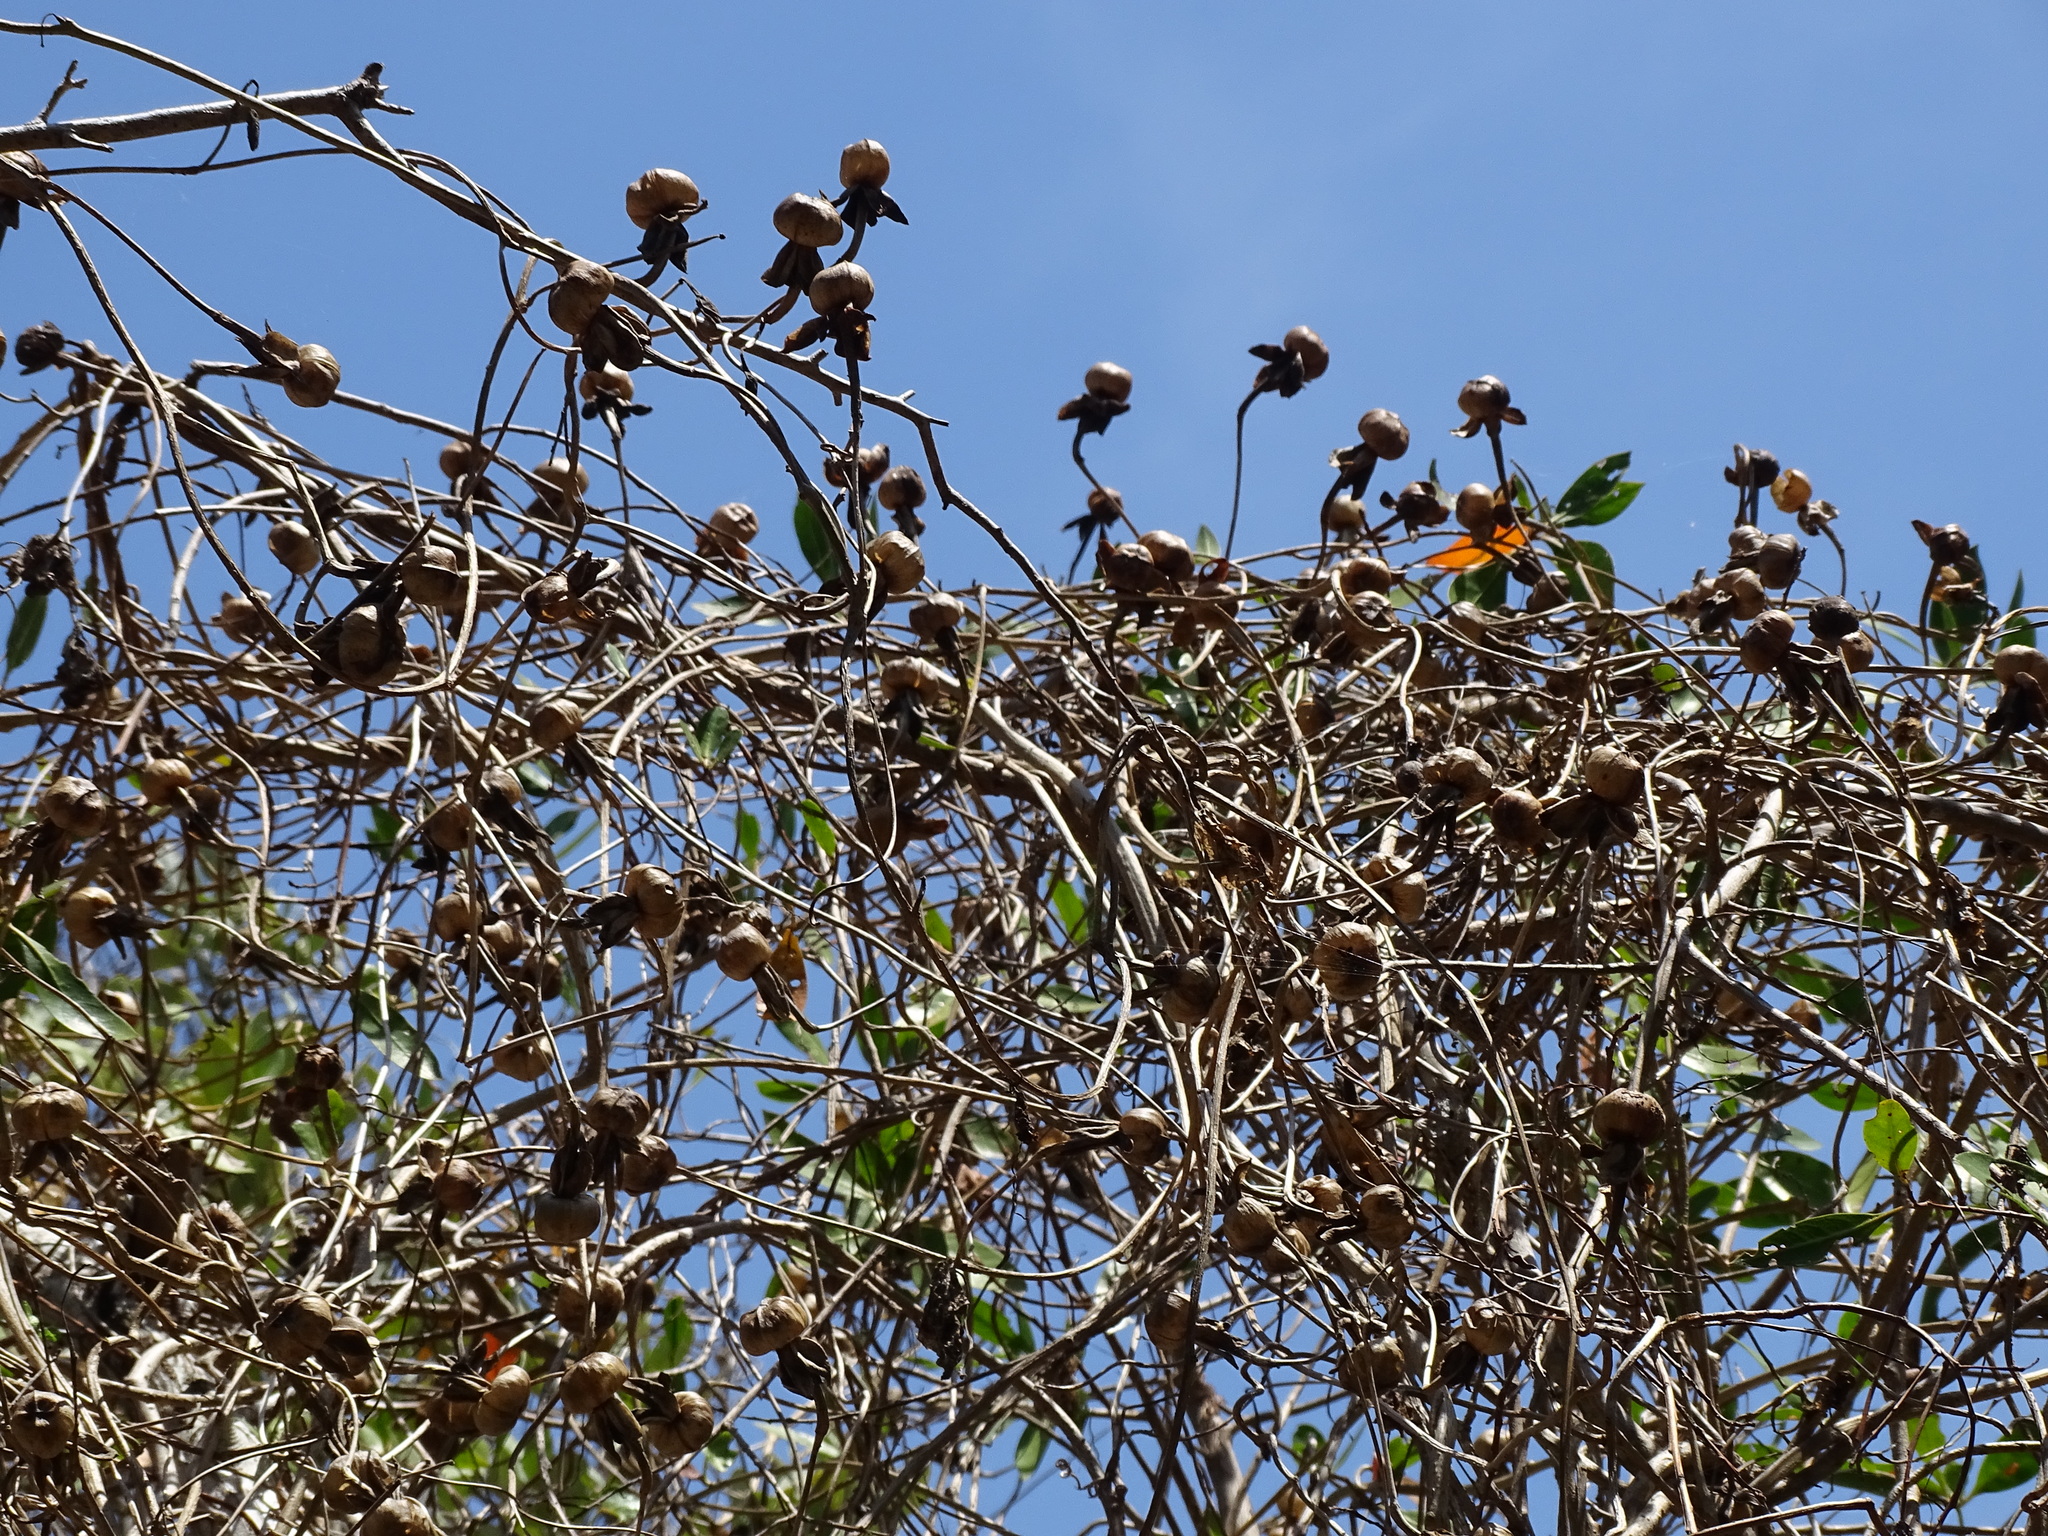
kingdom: Plantae
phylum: Tracheophyta
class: Magnoliopsida
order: Solanales
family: Convolvulaceae
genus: Ipomoea
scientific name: Ipomoea violacea
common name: Beach moonflower
